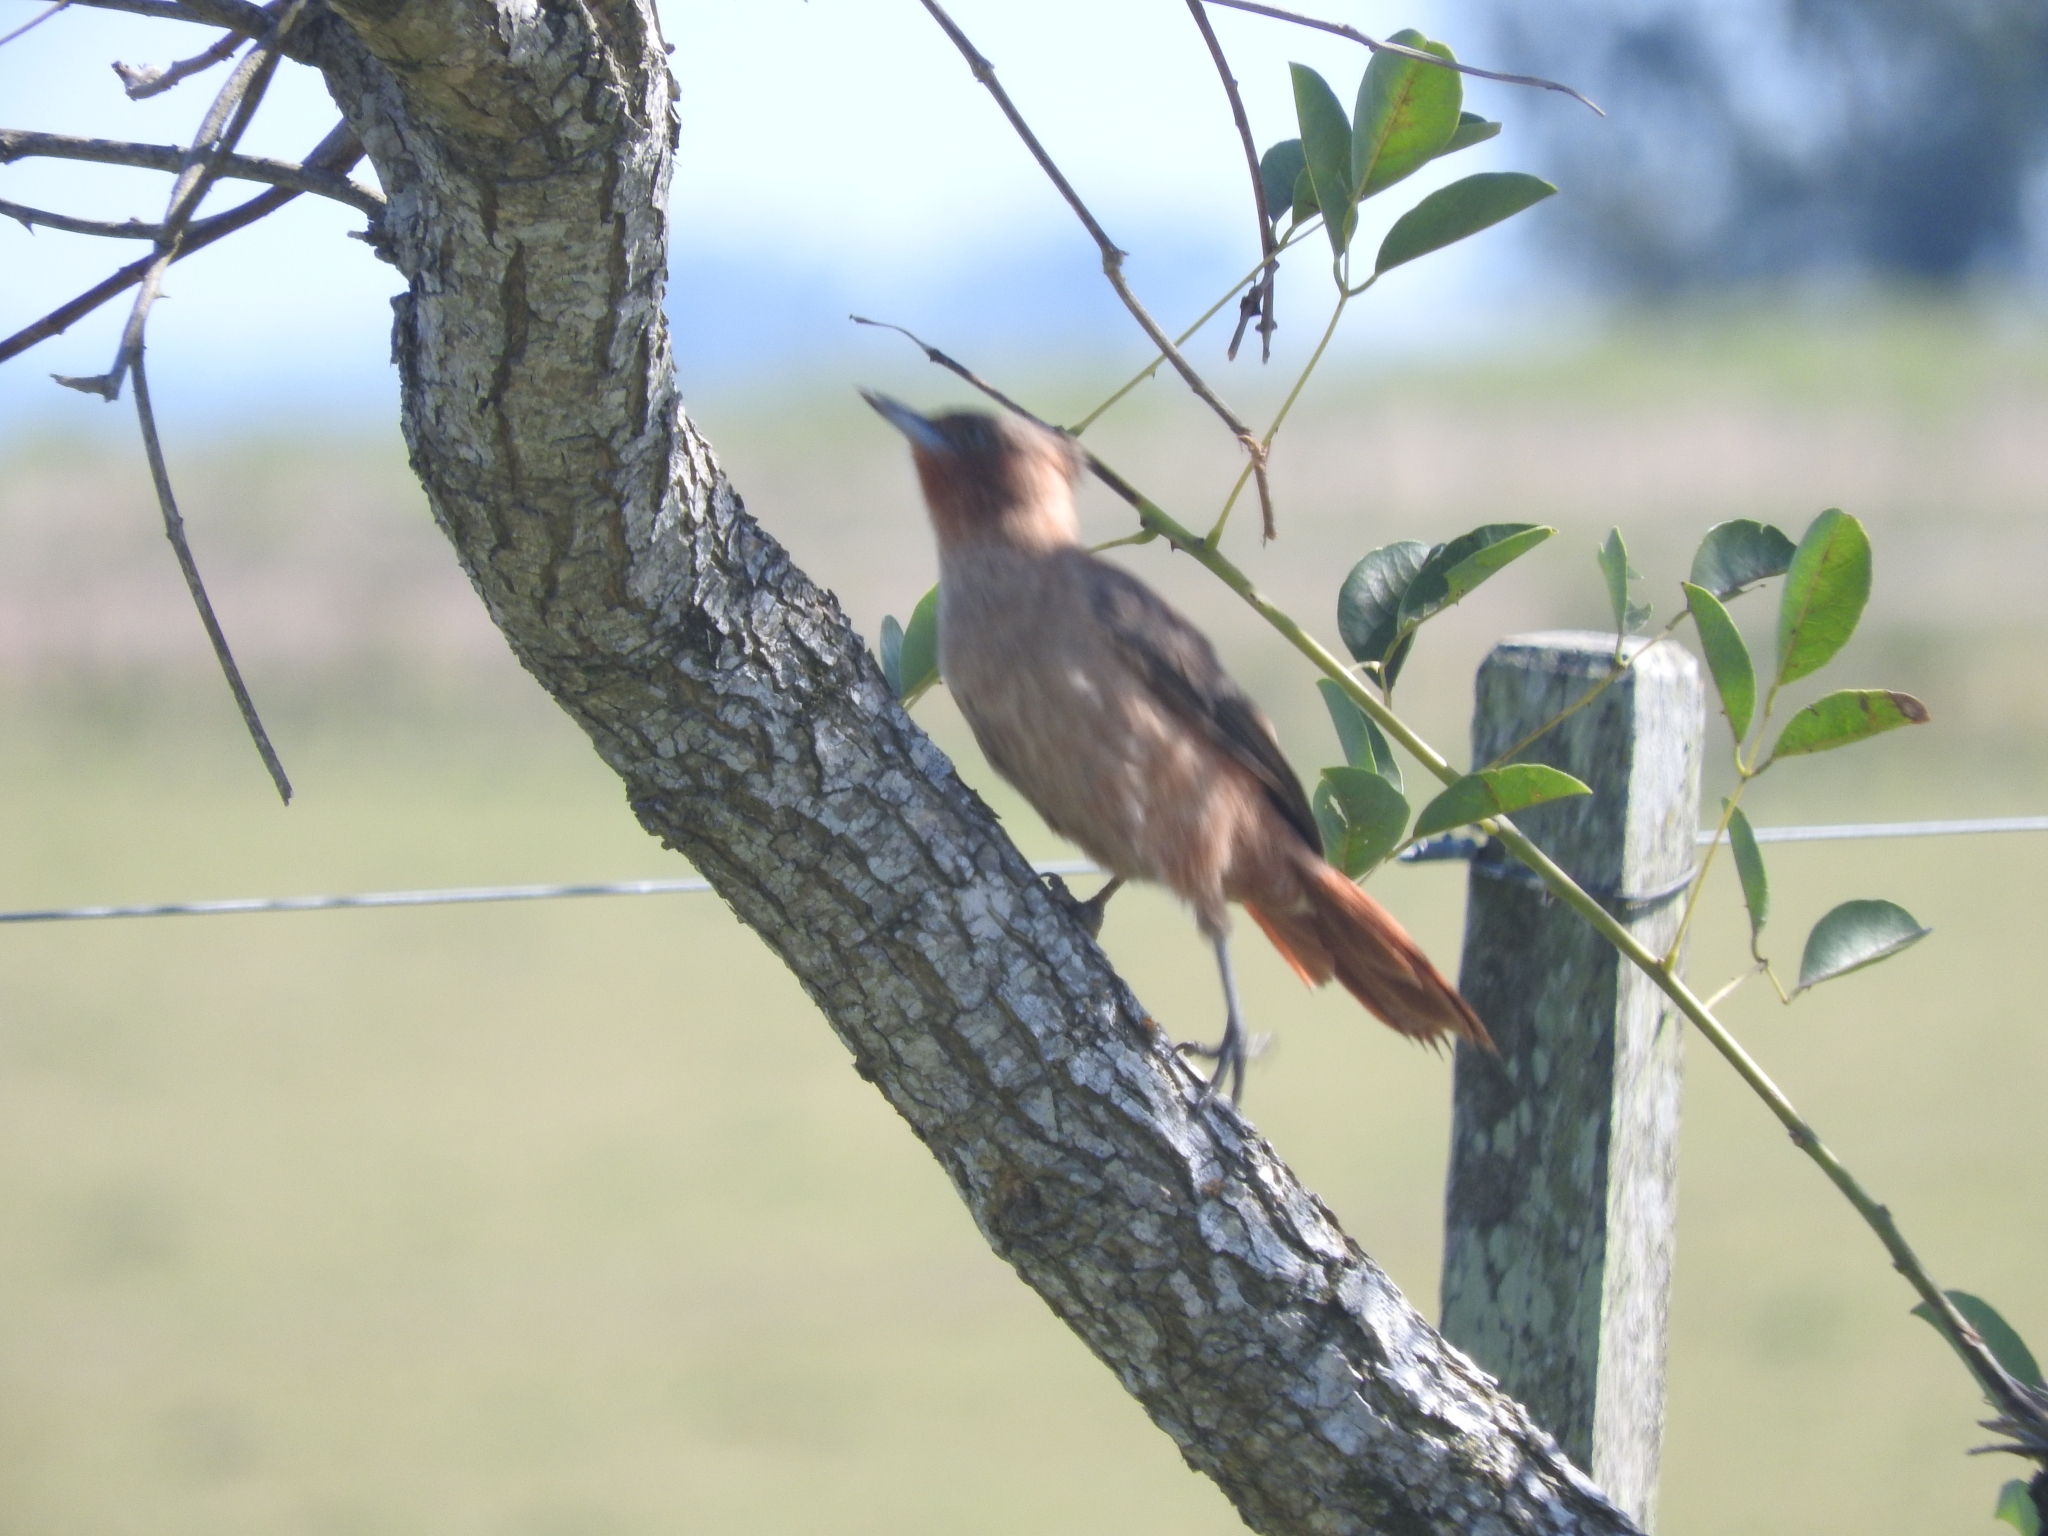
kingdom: Animalia
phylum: Chordata
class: Aves
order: Passeriformes
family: Furnariidae
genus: Pseudoseisura
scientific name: Pseudoseisura lophotes
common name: Brown cacholote
